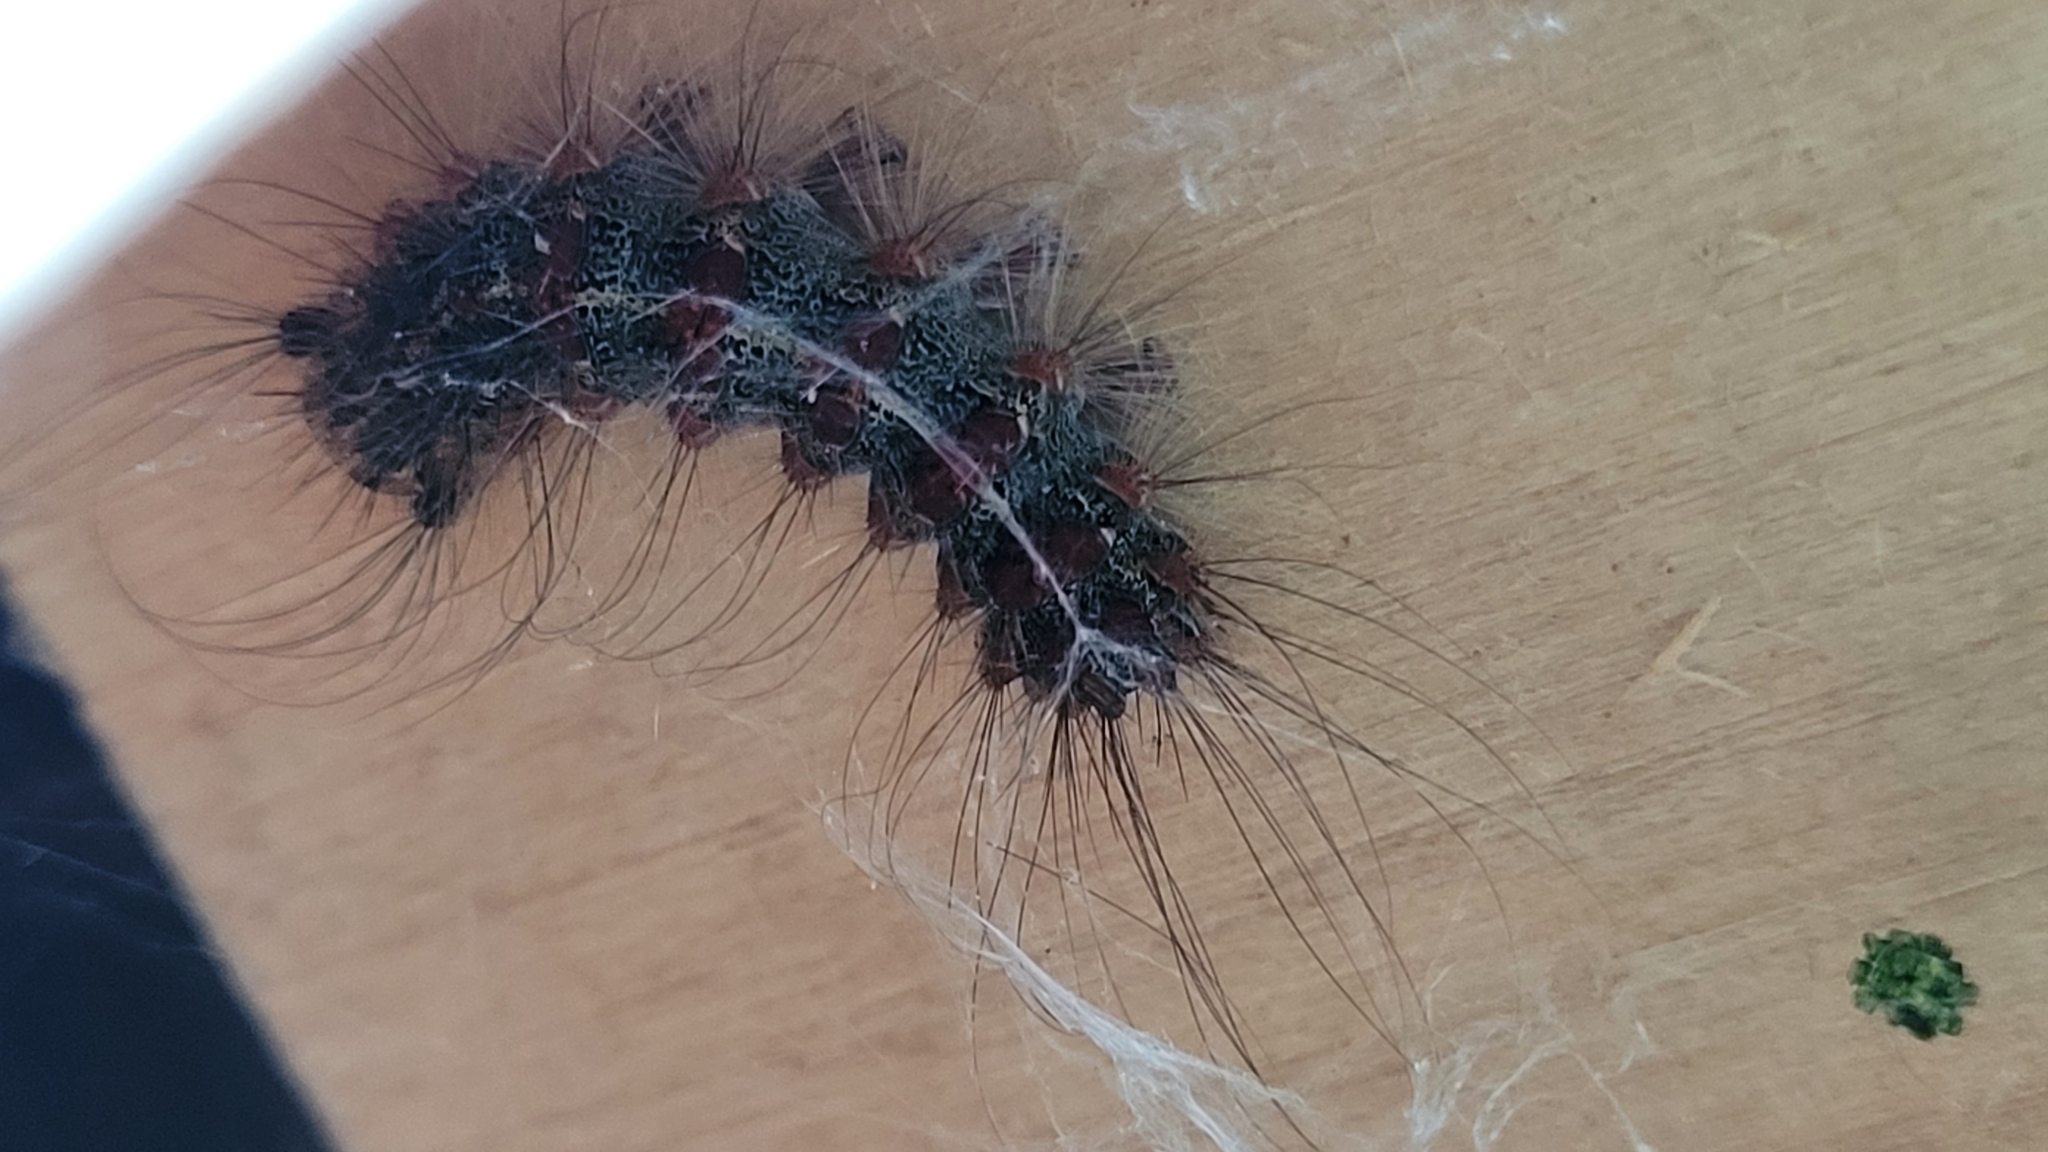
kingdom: Animalia
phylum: Arthropoda
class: Insecta
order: Lepidoptera
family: Erebidae
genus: Lymantria
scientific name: Lymantria dispar
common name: Gypsy moth
